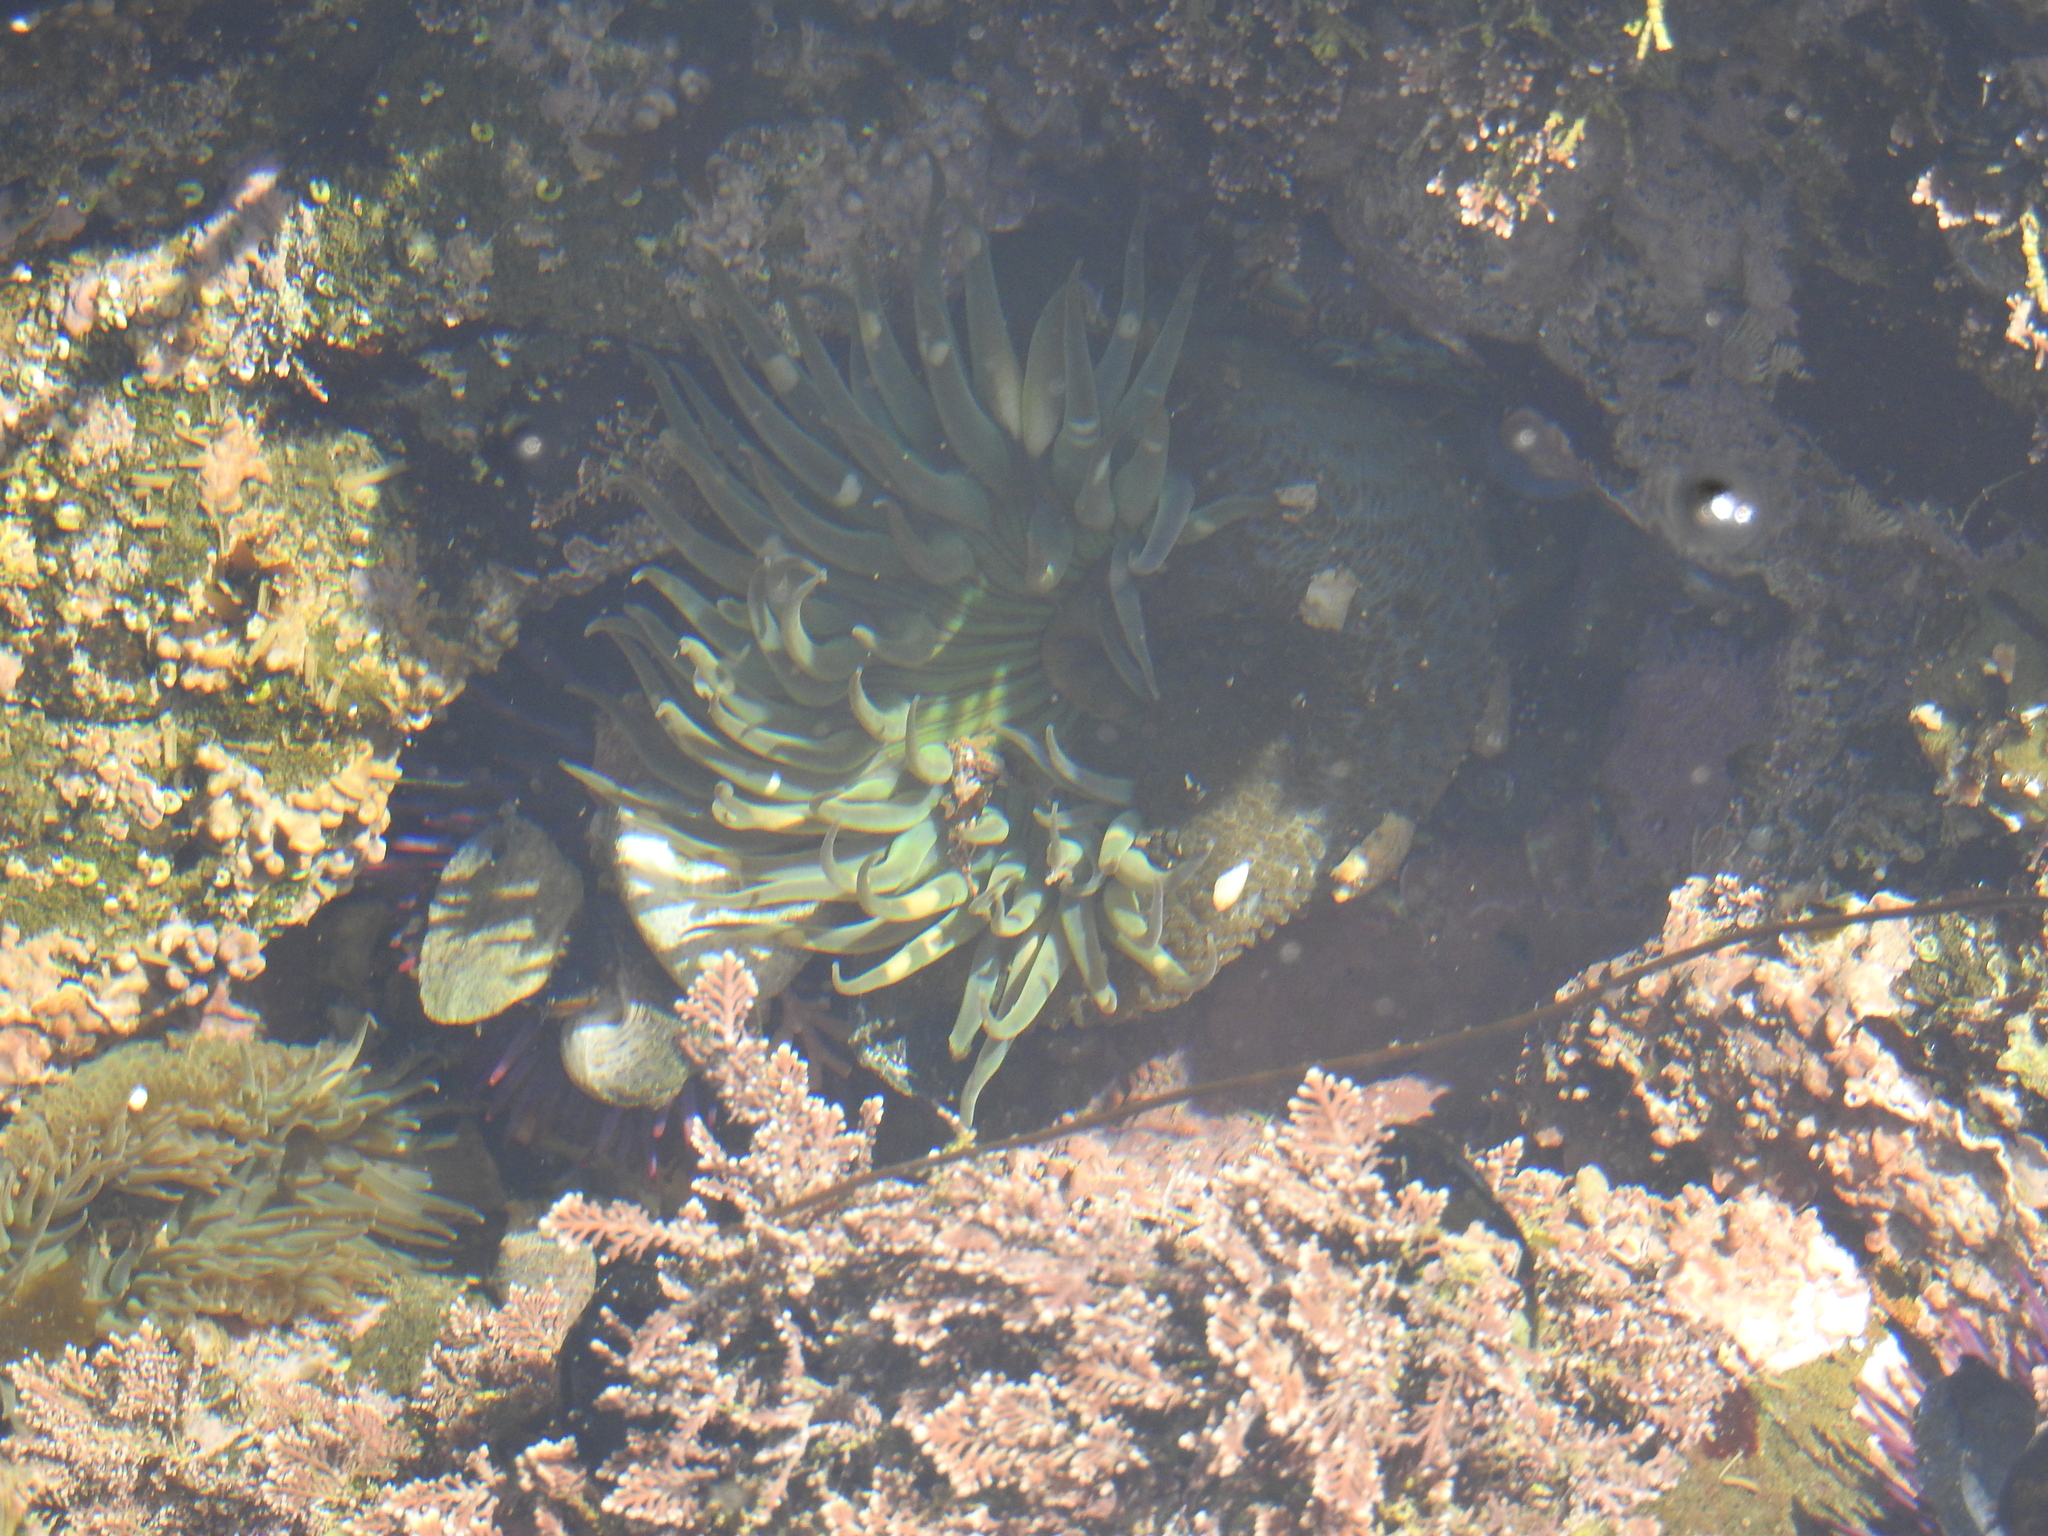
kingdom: Animalia
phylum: Cnidaria
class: Anthozoa
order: Actiniaria
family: Actiniidae
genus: Anthopleura
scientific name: Anthopleura sola
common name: Sun anemone
